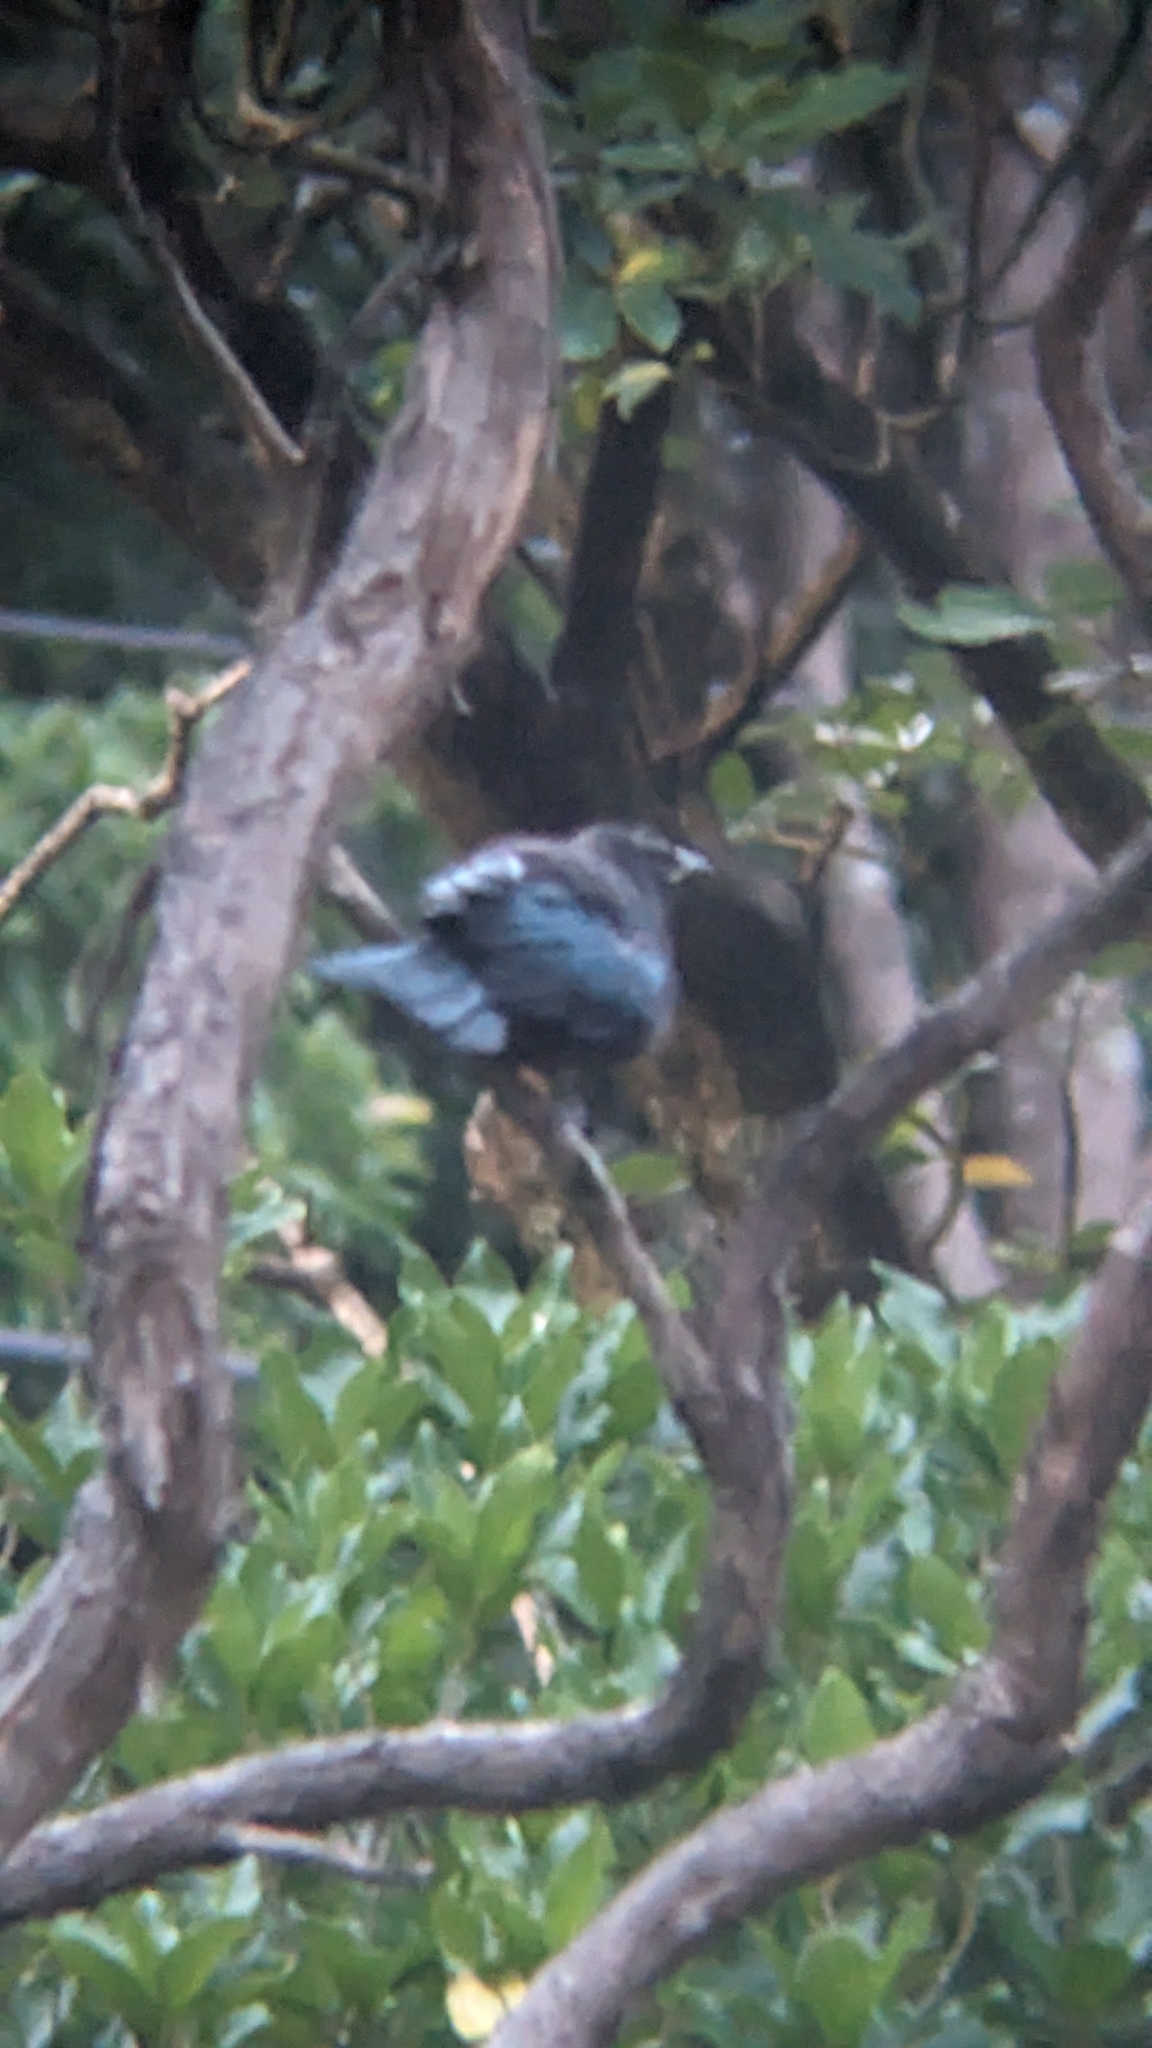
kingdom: Animalia
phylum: Chordata
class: Aves
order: Passeriformes
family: Meliphagidae
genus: Prosthemadera
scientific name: Prosthemadera novaeseelandiae
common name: Tui
